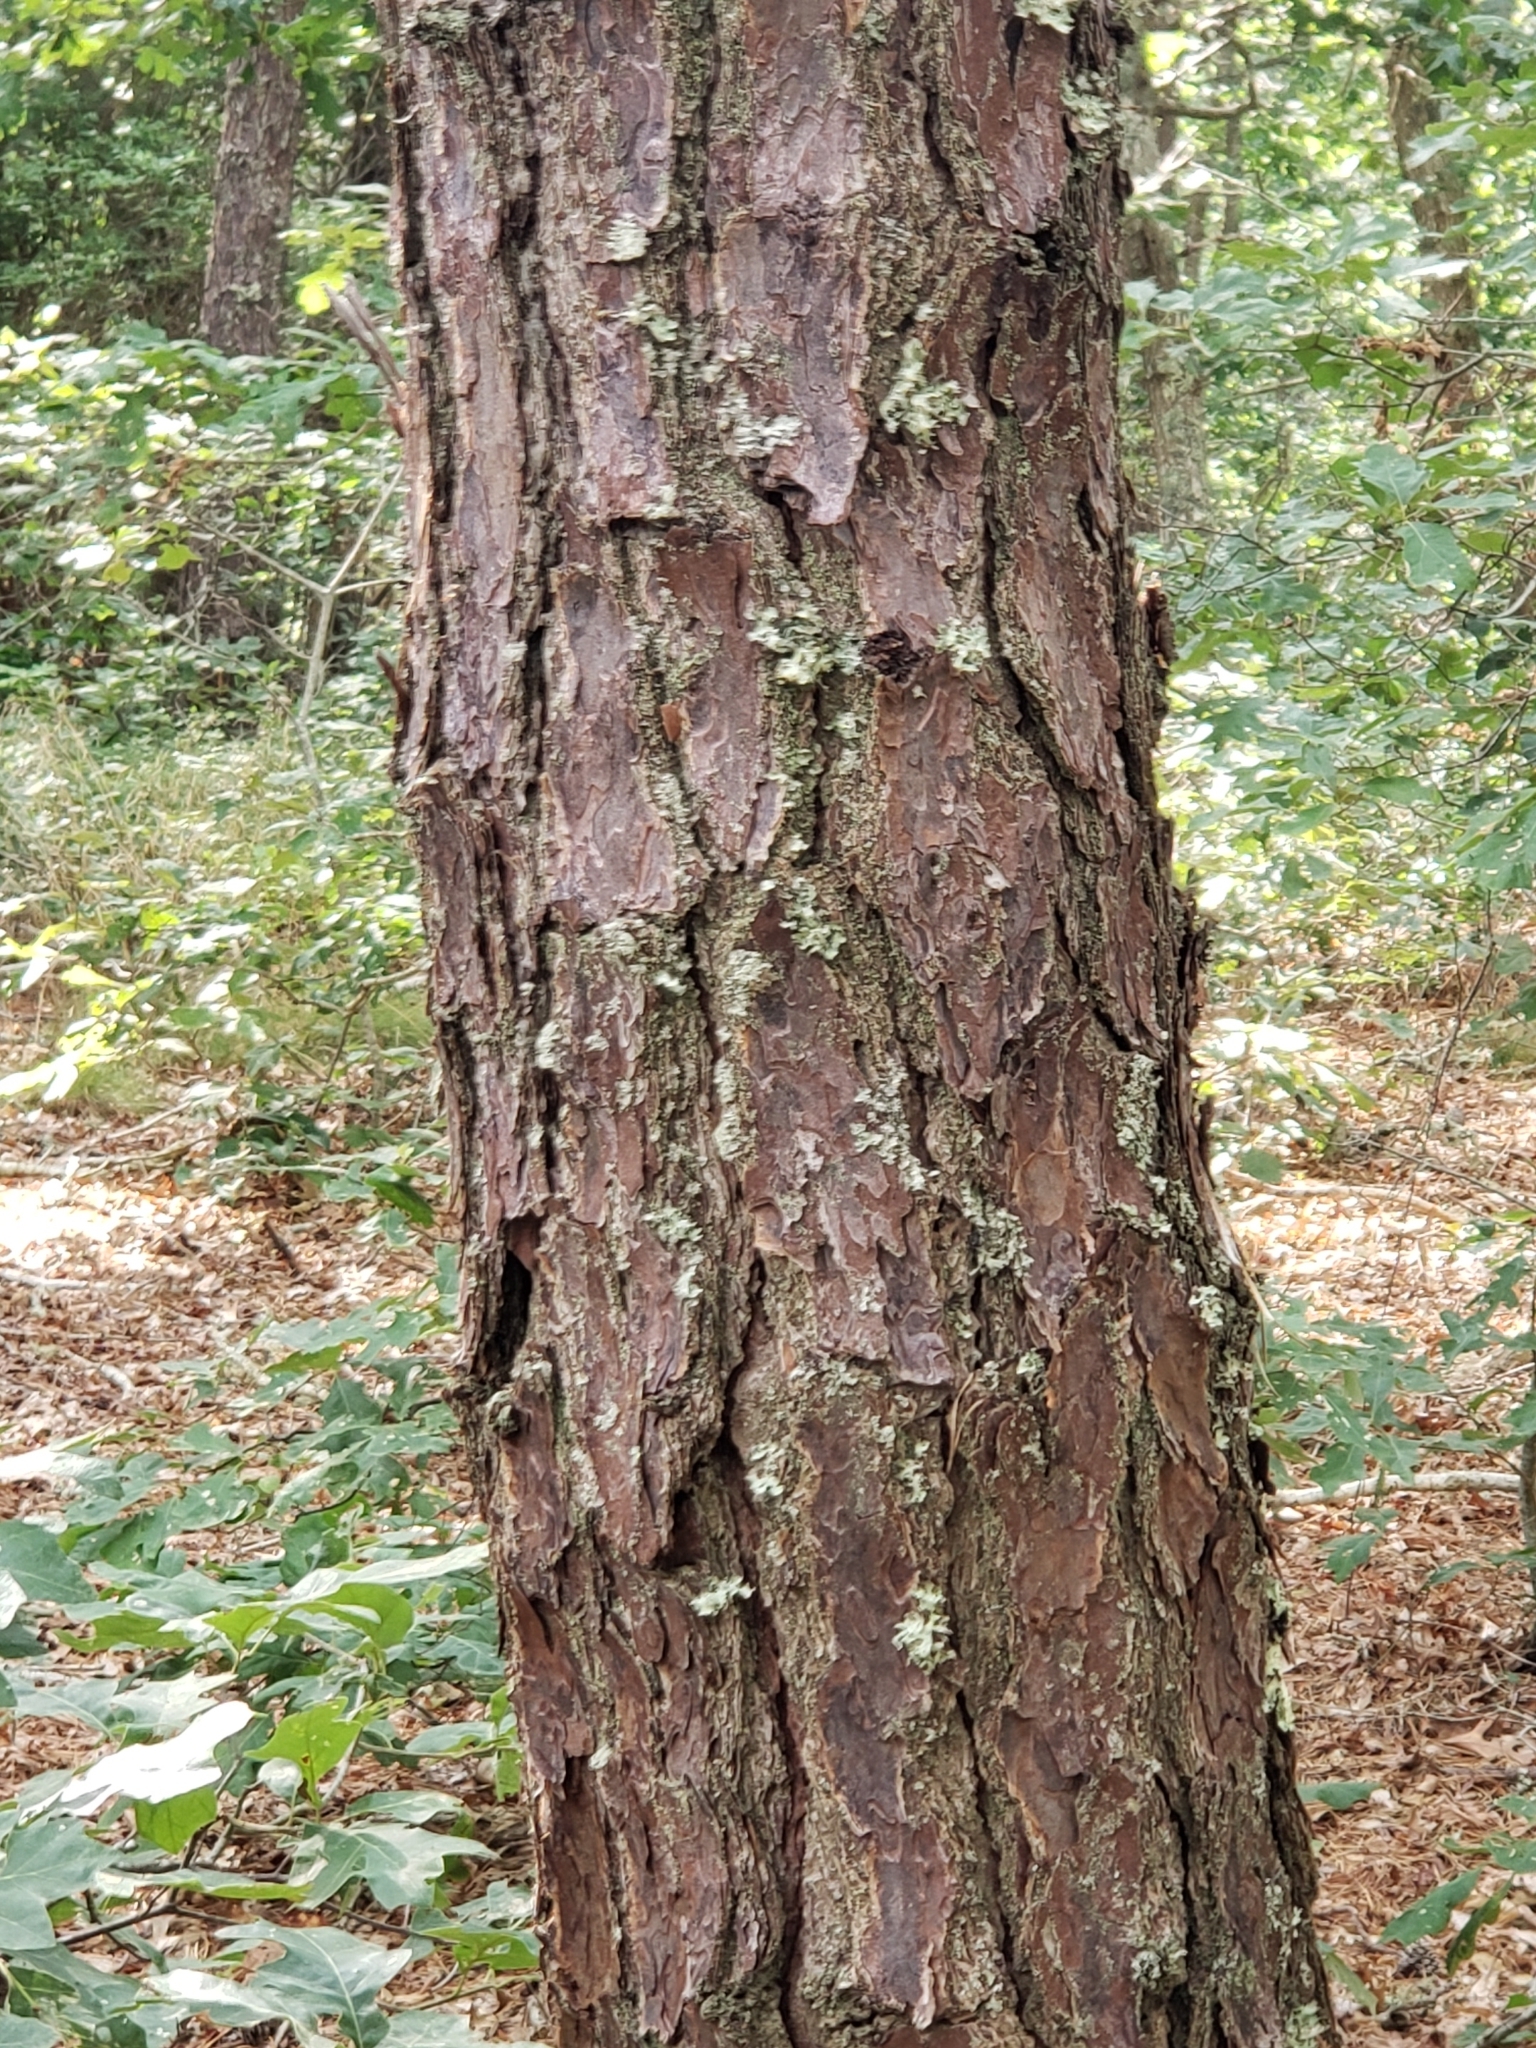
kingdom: Plantae
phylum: Tracheophyta
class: Pinopsida
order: Pinales
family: Pinaceae
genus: Pinus
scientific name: Pinus rigida
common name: Pitch pine
